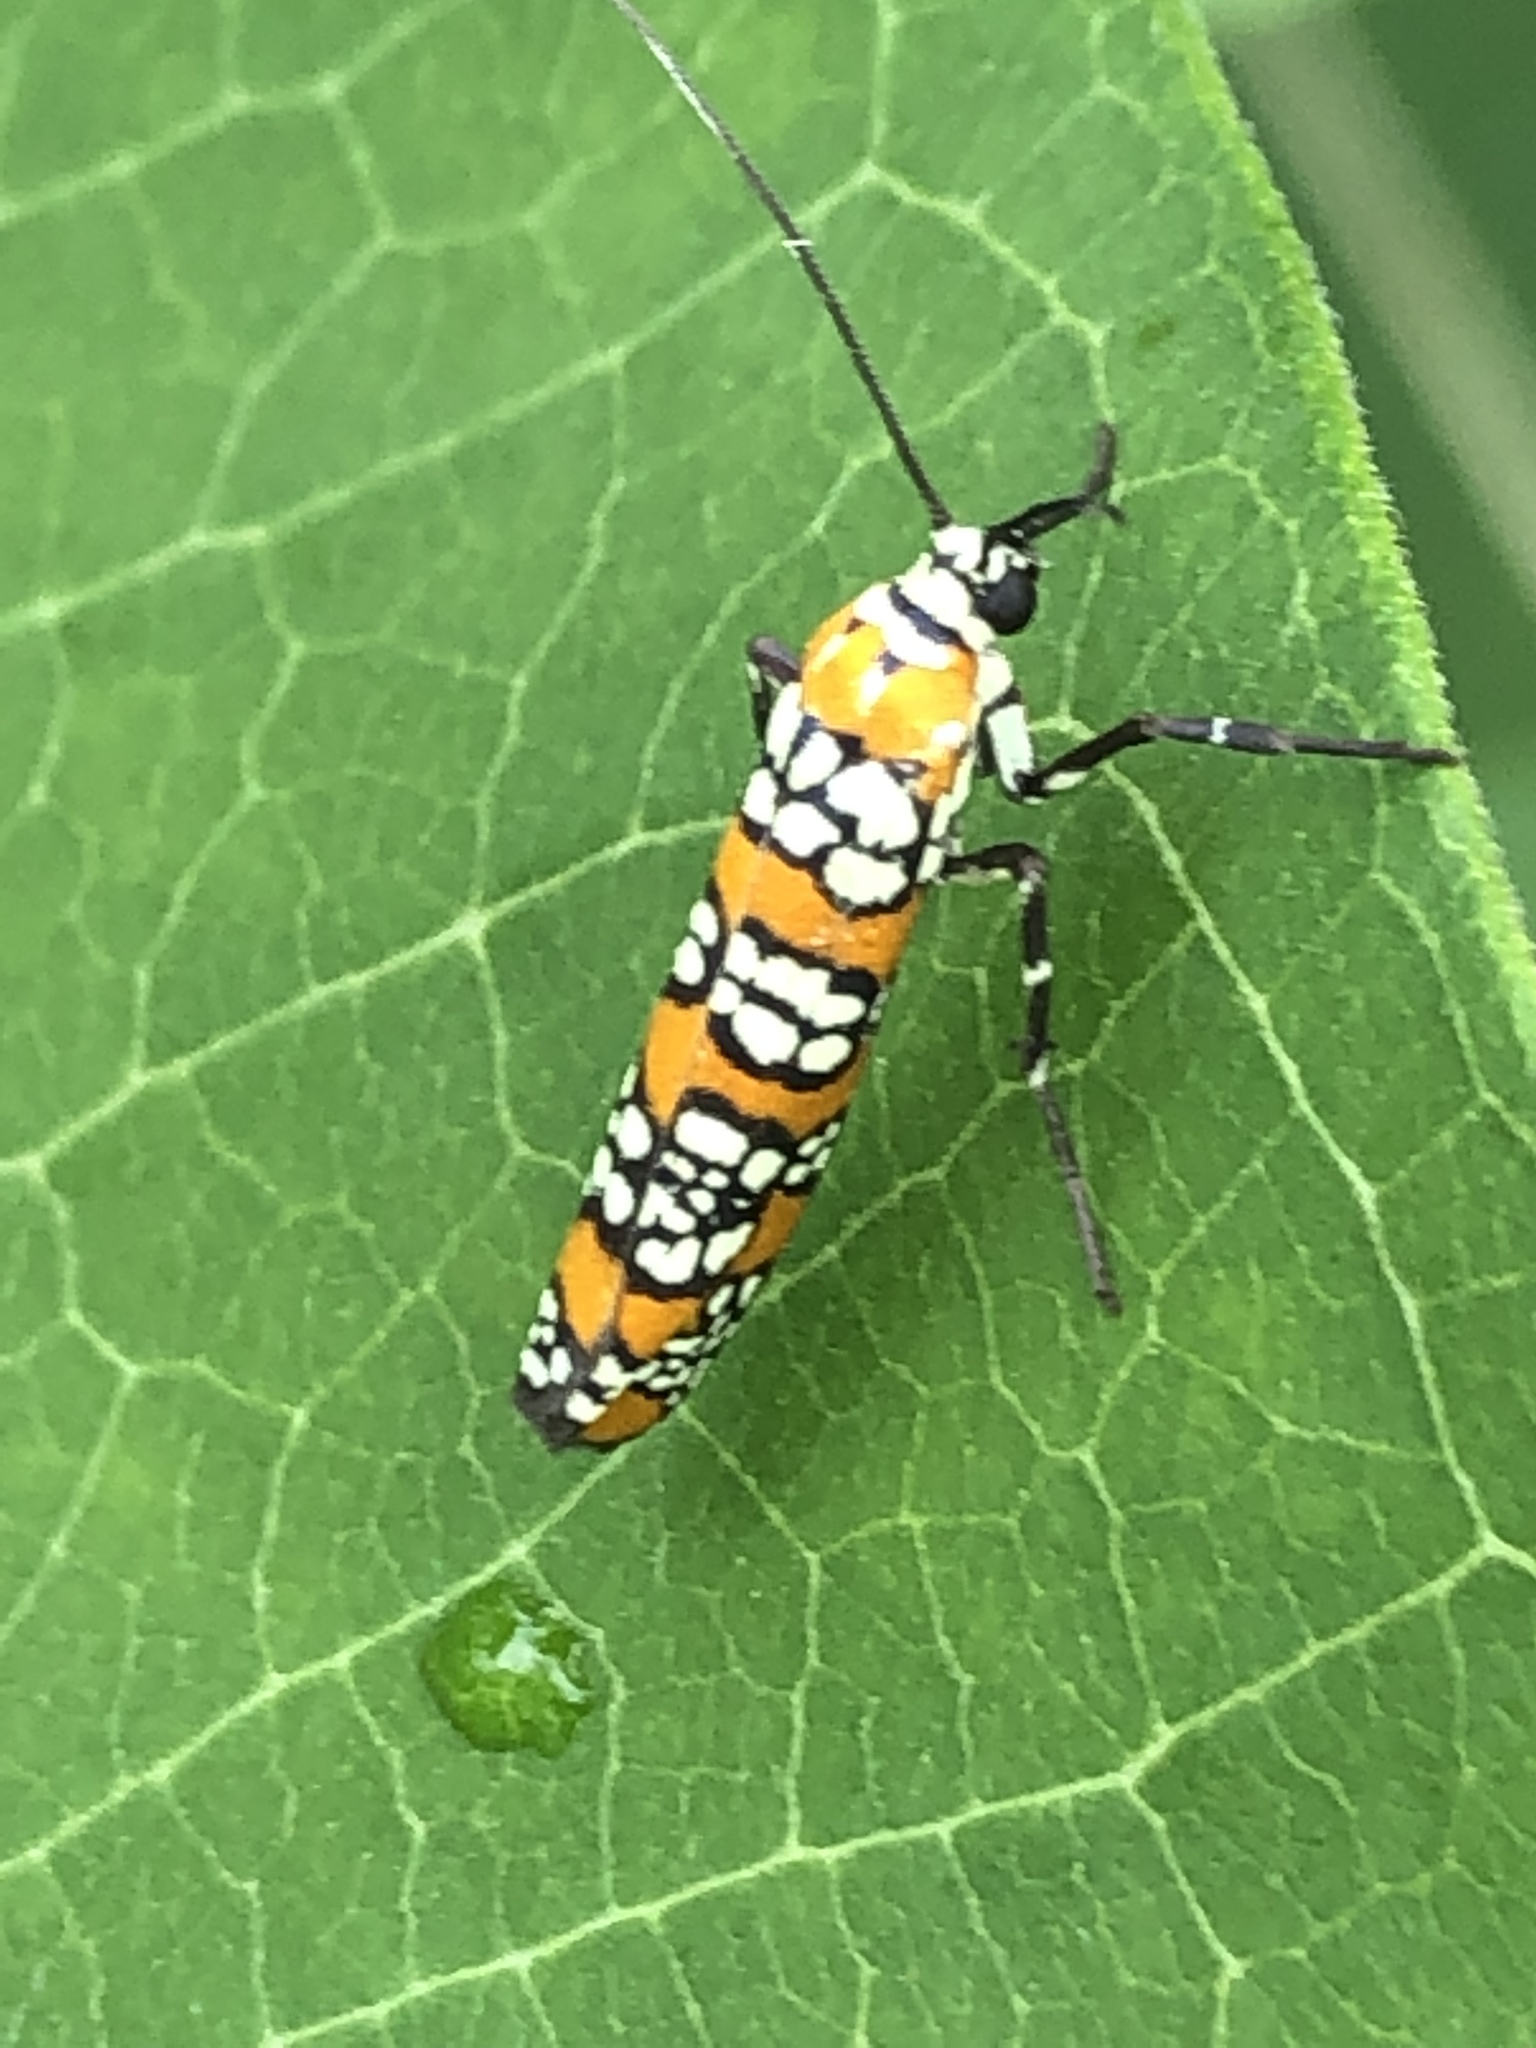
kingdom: Animalia
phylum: Arthropoda
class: Insecta
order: Lepidoptera
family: Attevidae
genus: Atteva
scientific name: Atteva punctella
